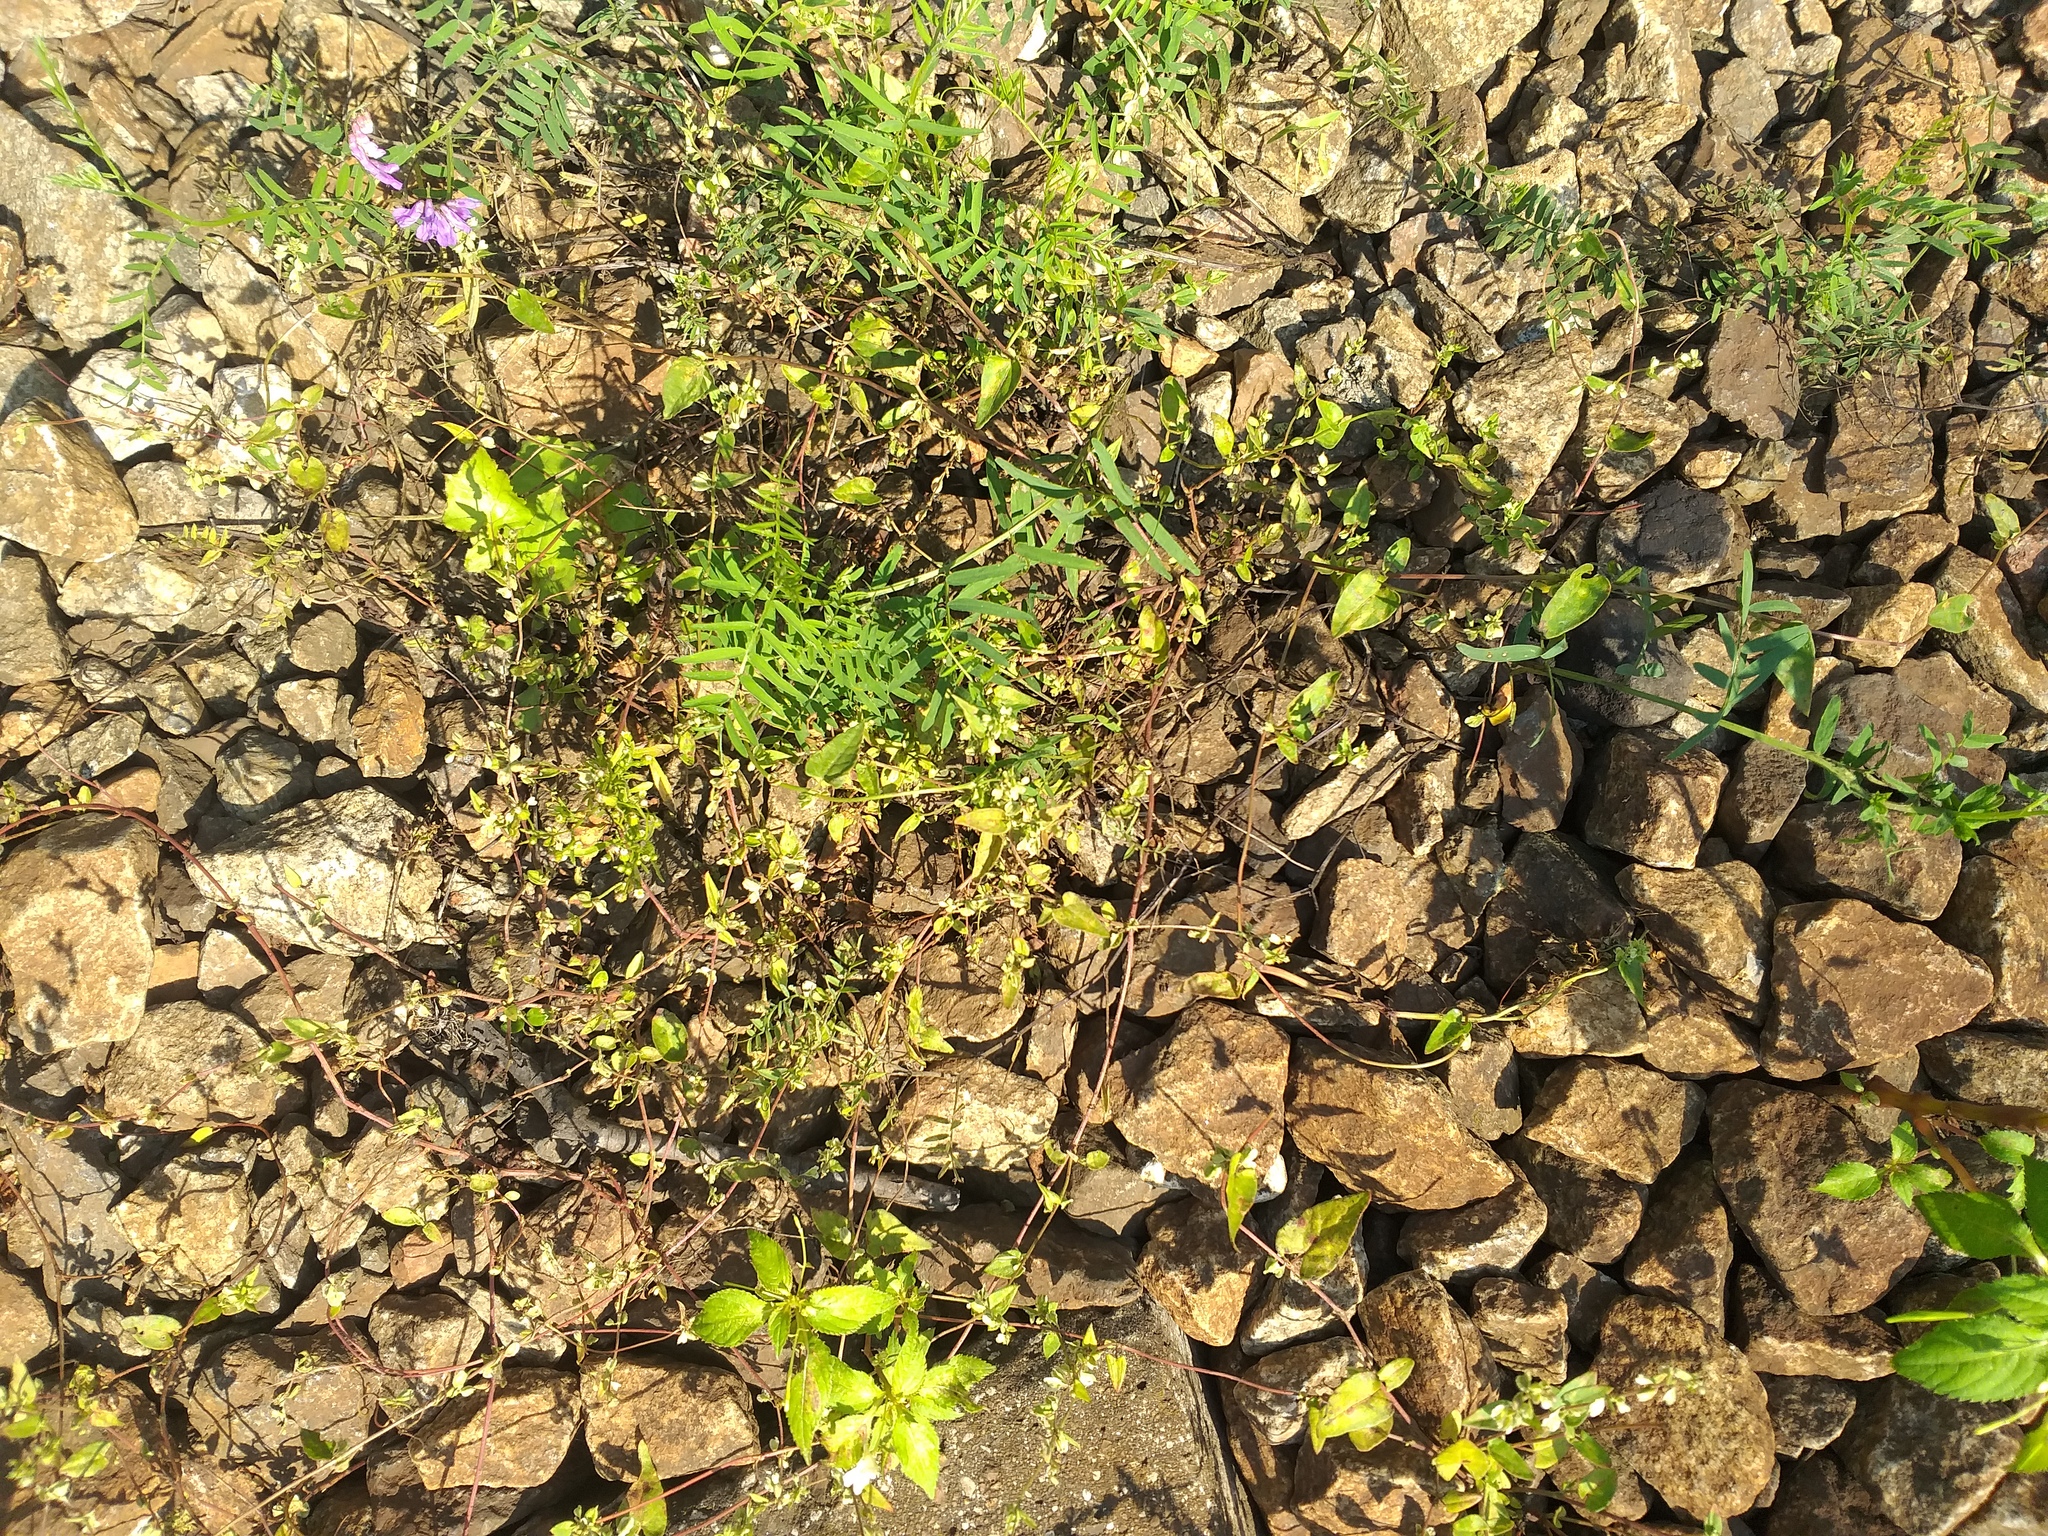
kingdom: Plantae
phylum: Tracheophyta
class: Magnoliopsida
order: Caryophyllales
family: Polygonaceae
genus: Fallopia
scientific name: Fallopia convolvulus
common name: Black bindweed
